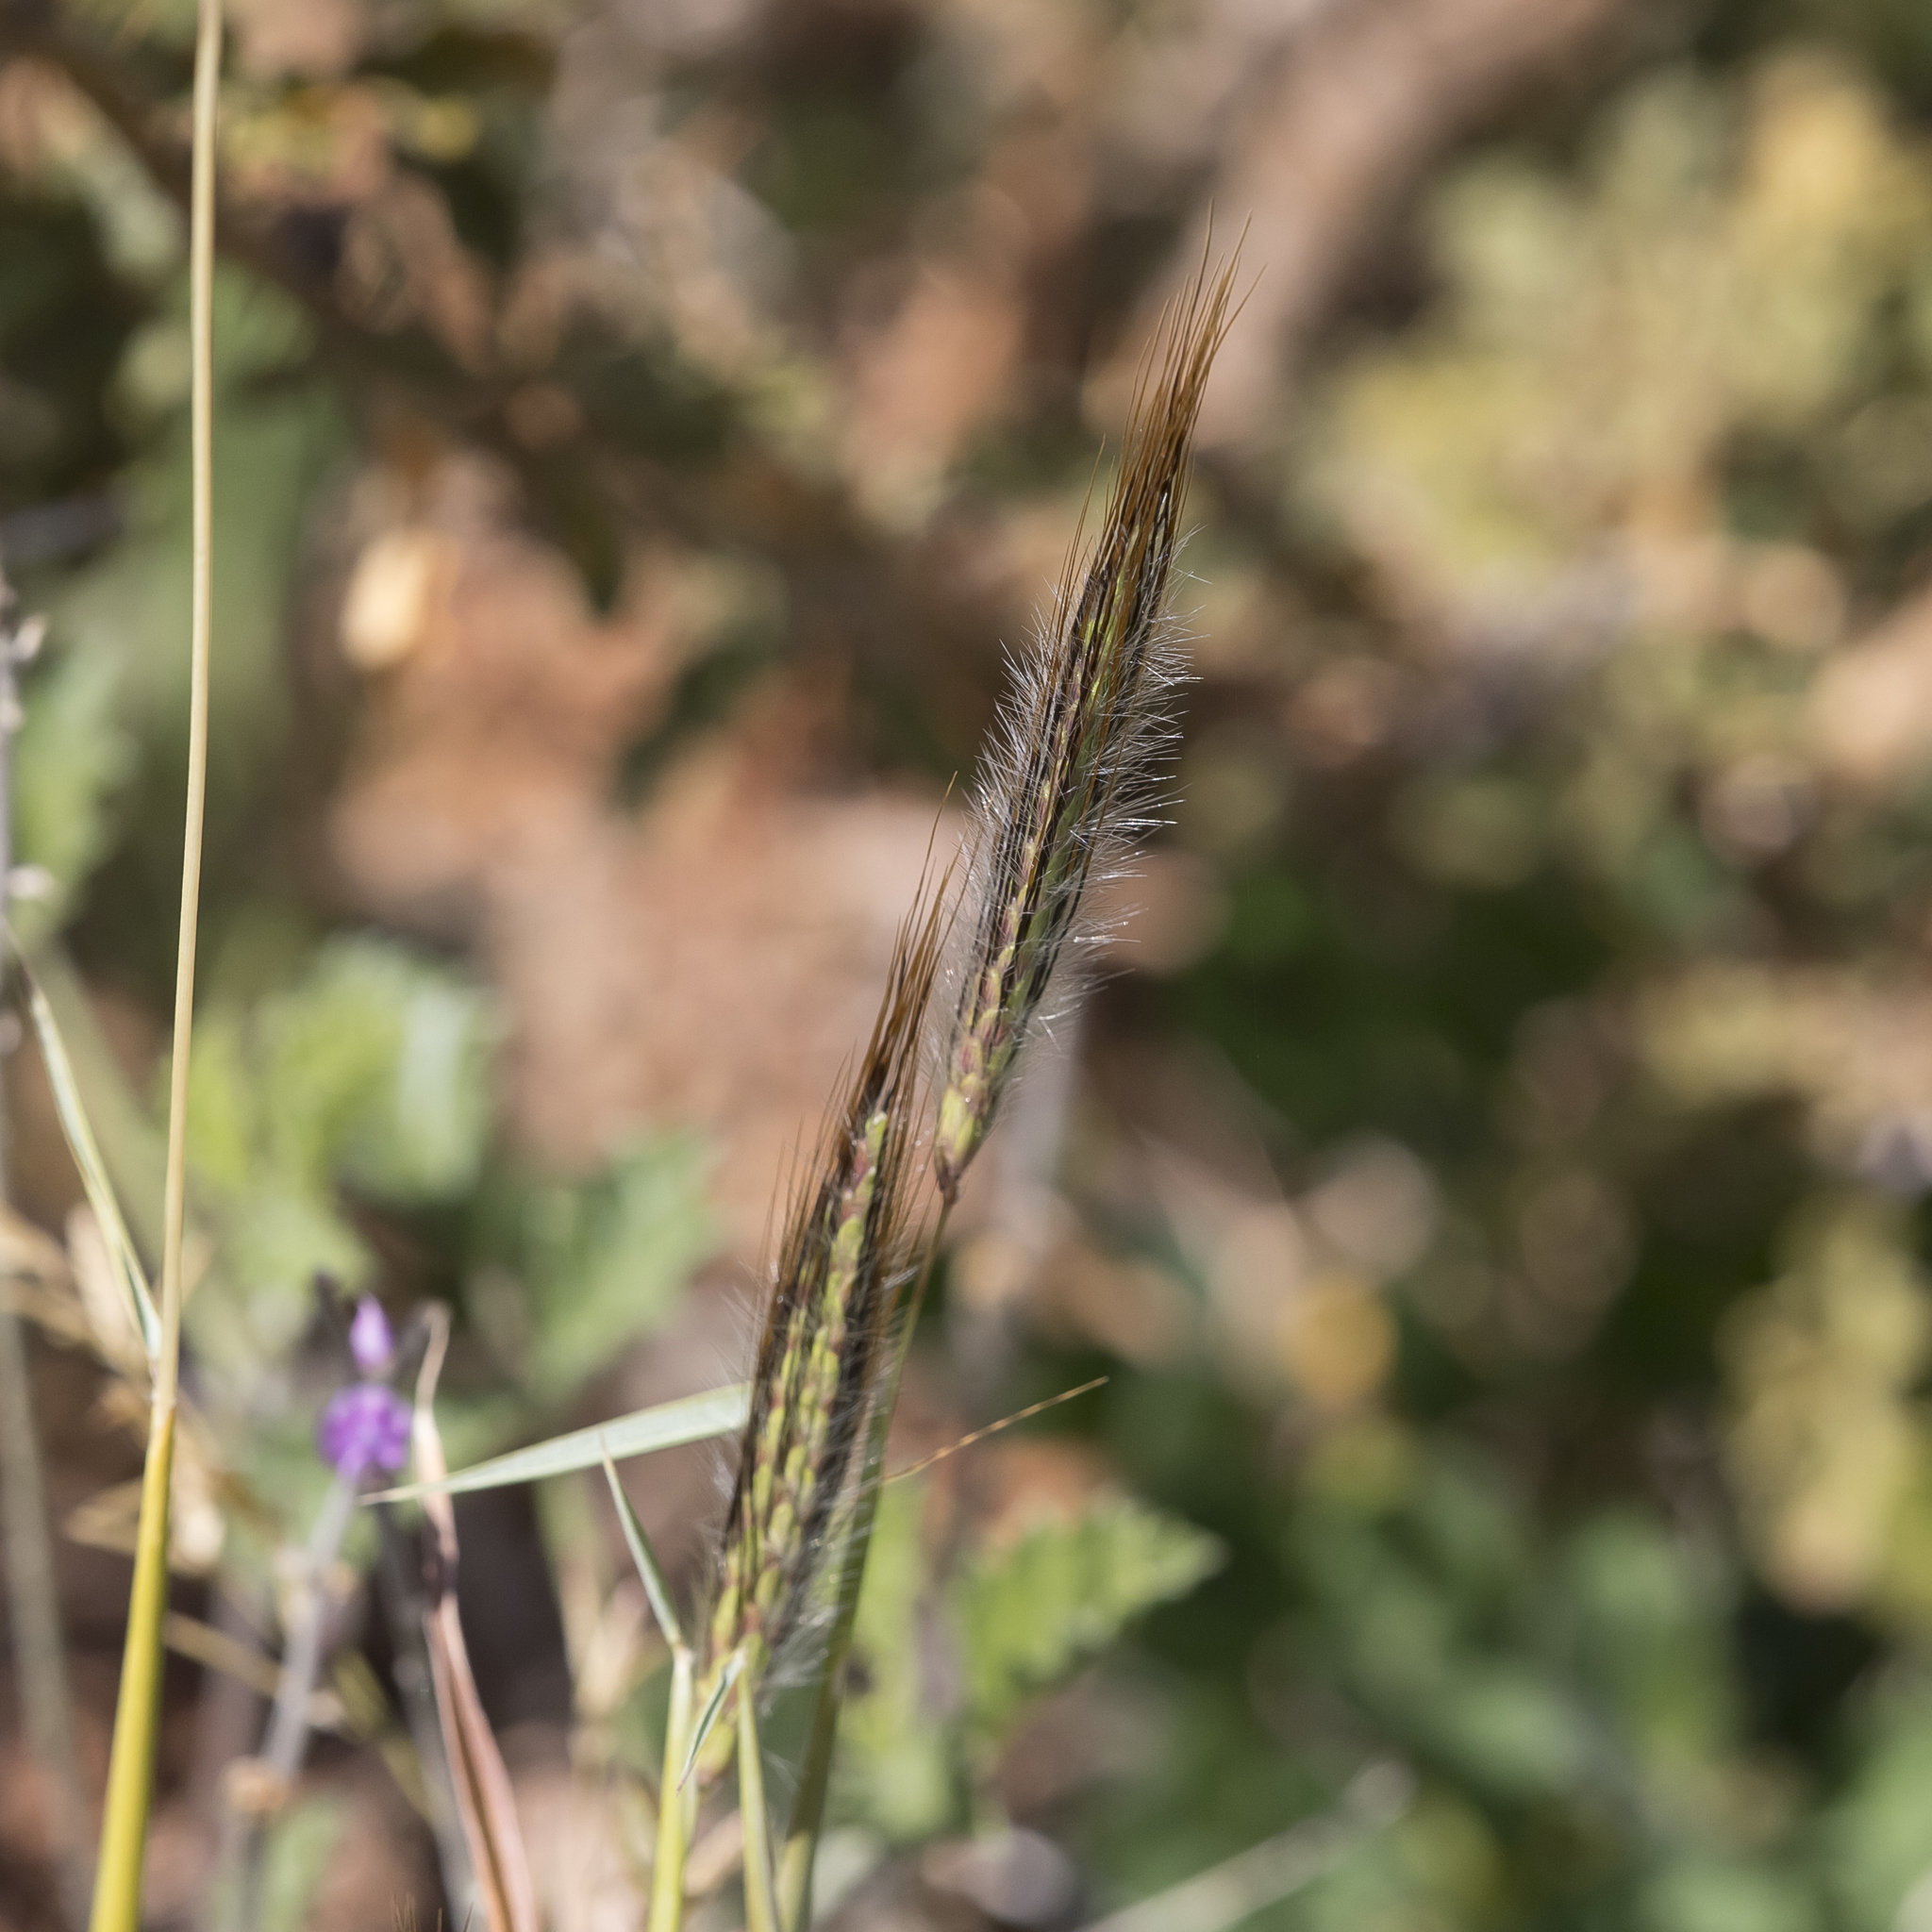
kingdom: Plantae
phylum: Tracheophyta
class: Liliopsida
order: Poales
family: Poaceae
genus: Dichanthium
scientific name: Dichanthium sericeum
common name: Silky bluestem
